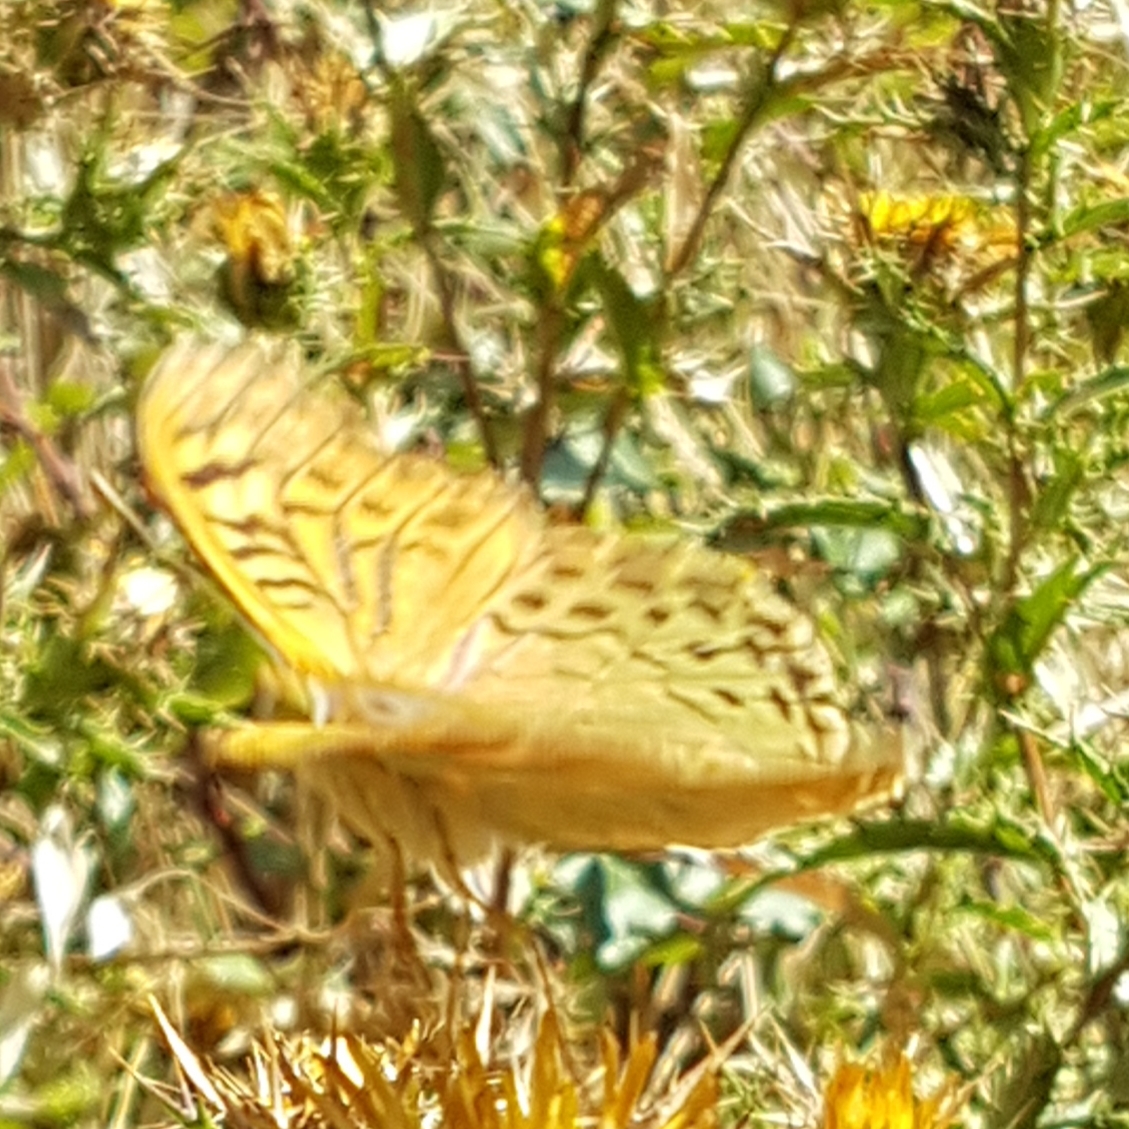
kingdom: Animalia
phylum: Arthropoda
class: Insecta
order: Lepidoptera
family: Nymphalidae
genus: Damora
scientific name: Damora pandora
